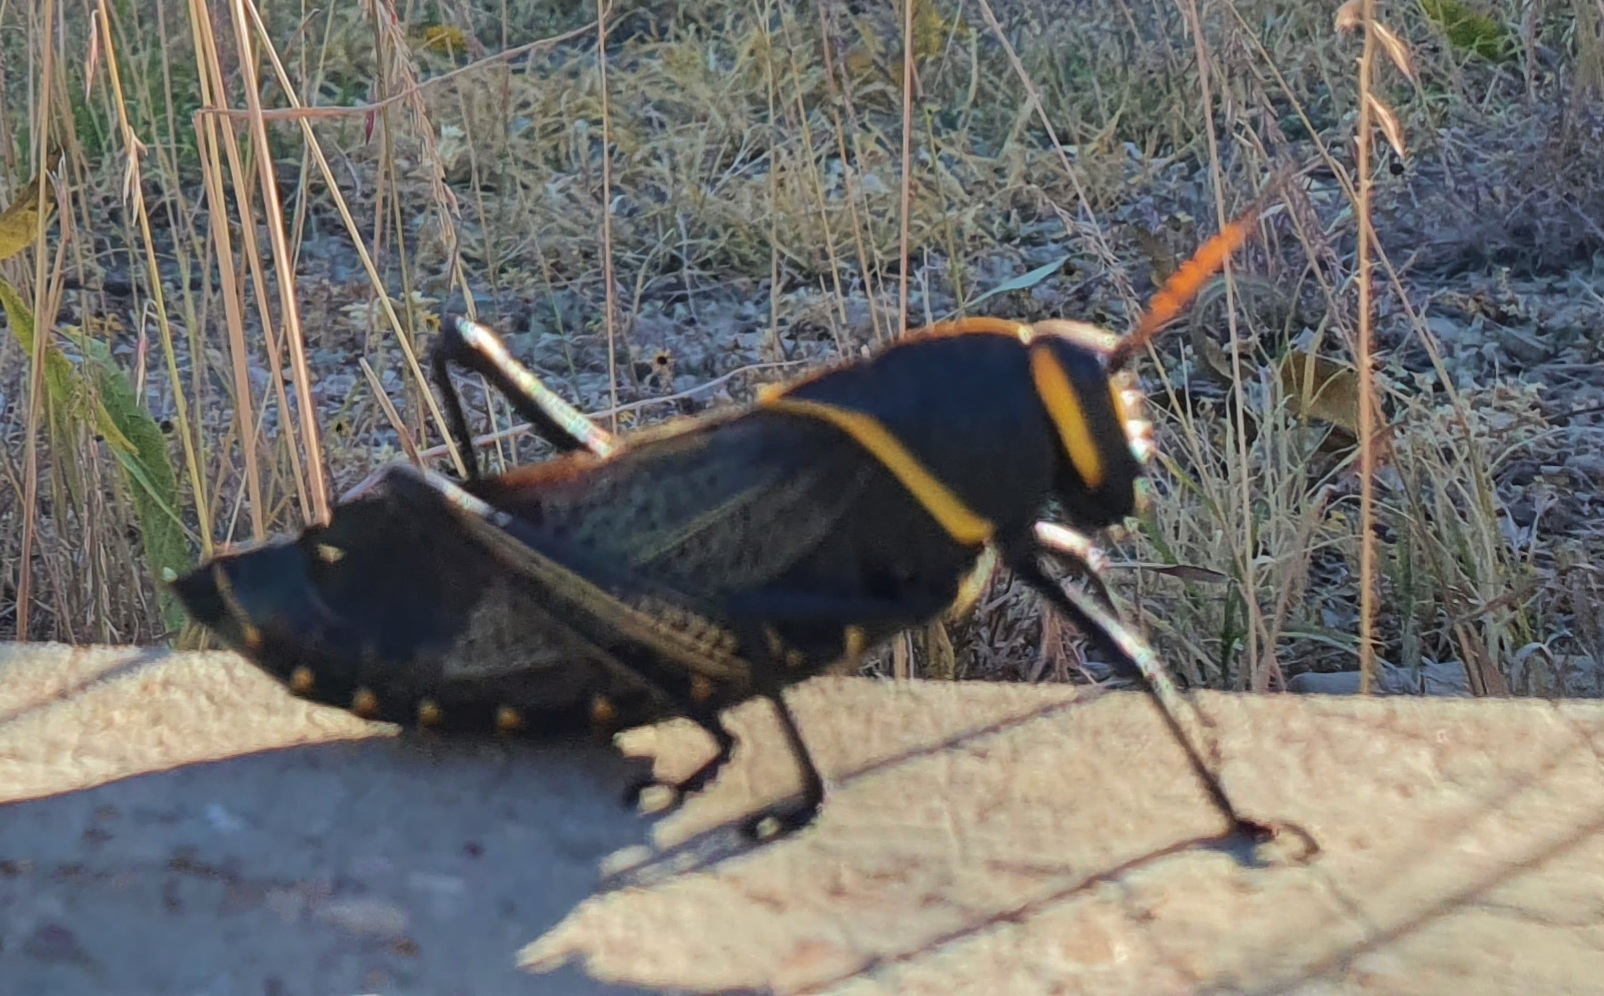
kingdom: Animalia
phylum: Arthropoda
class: Insecta
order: Orthoptera
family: Romaleidae
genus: Romalea
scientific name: Romalea
